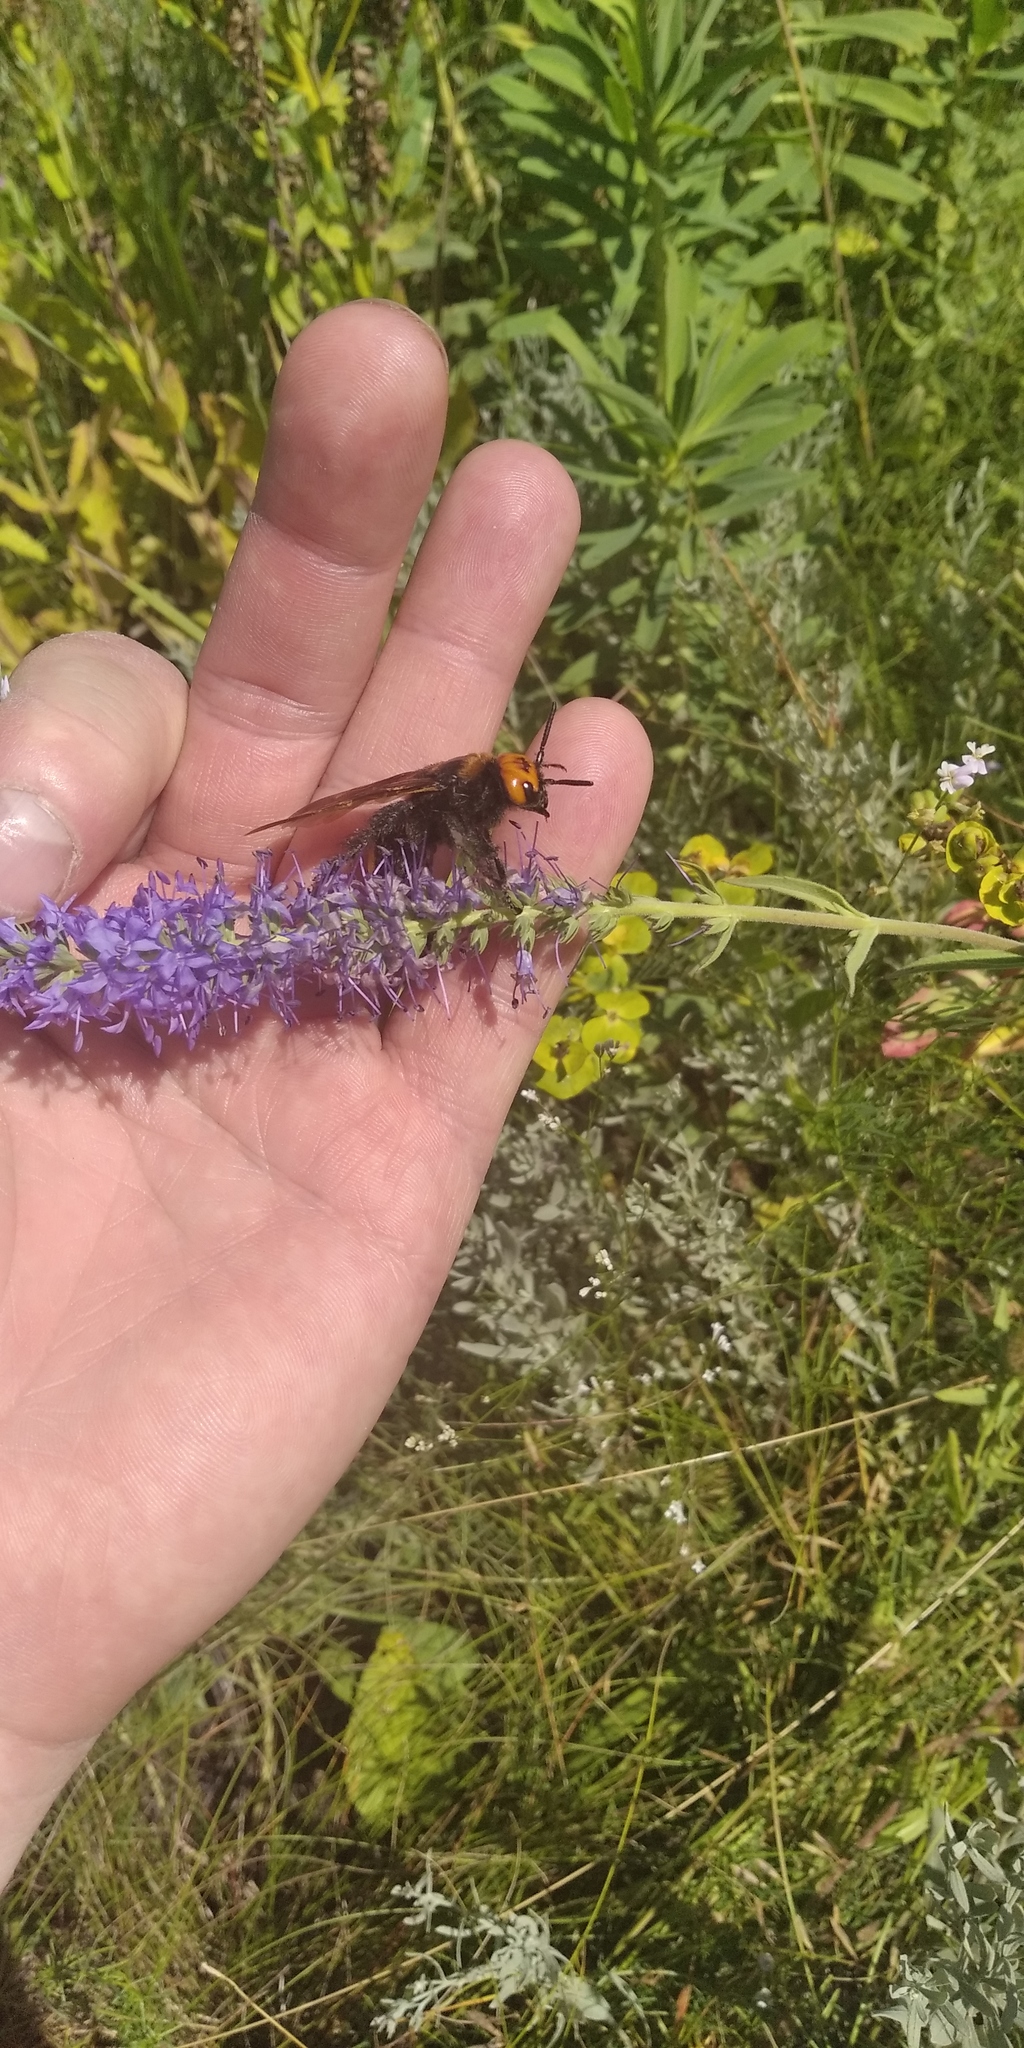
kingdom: Plantae
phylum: Tracheophyta
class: Magnoliopsida
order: Lamiales
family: Plantaginaceae
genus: Veronica
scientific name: Veronica barrelieri
